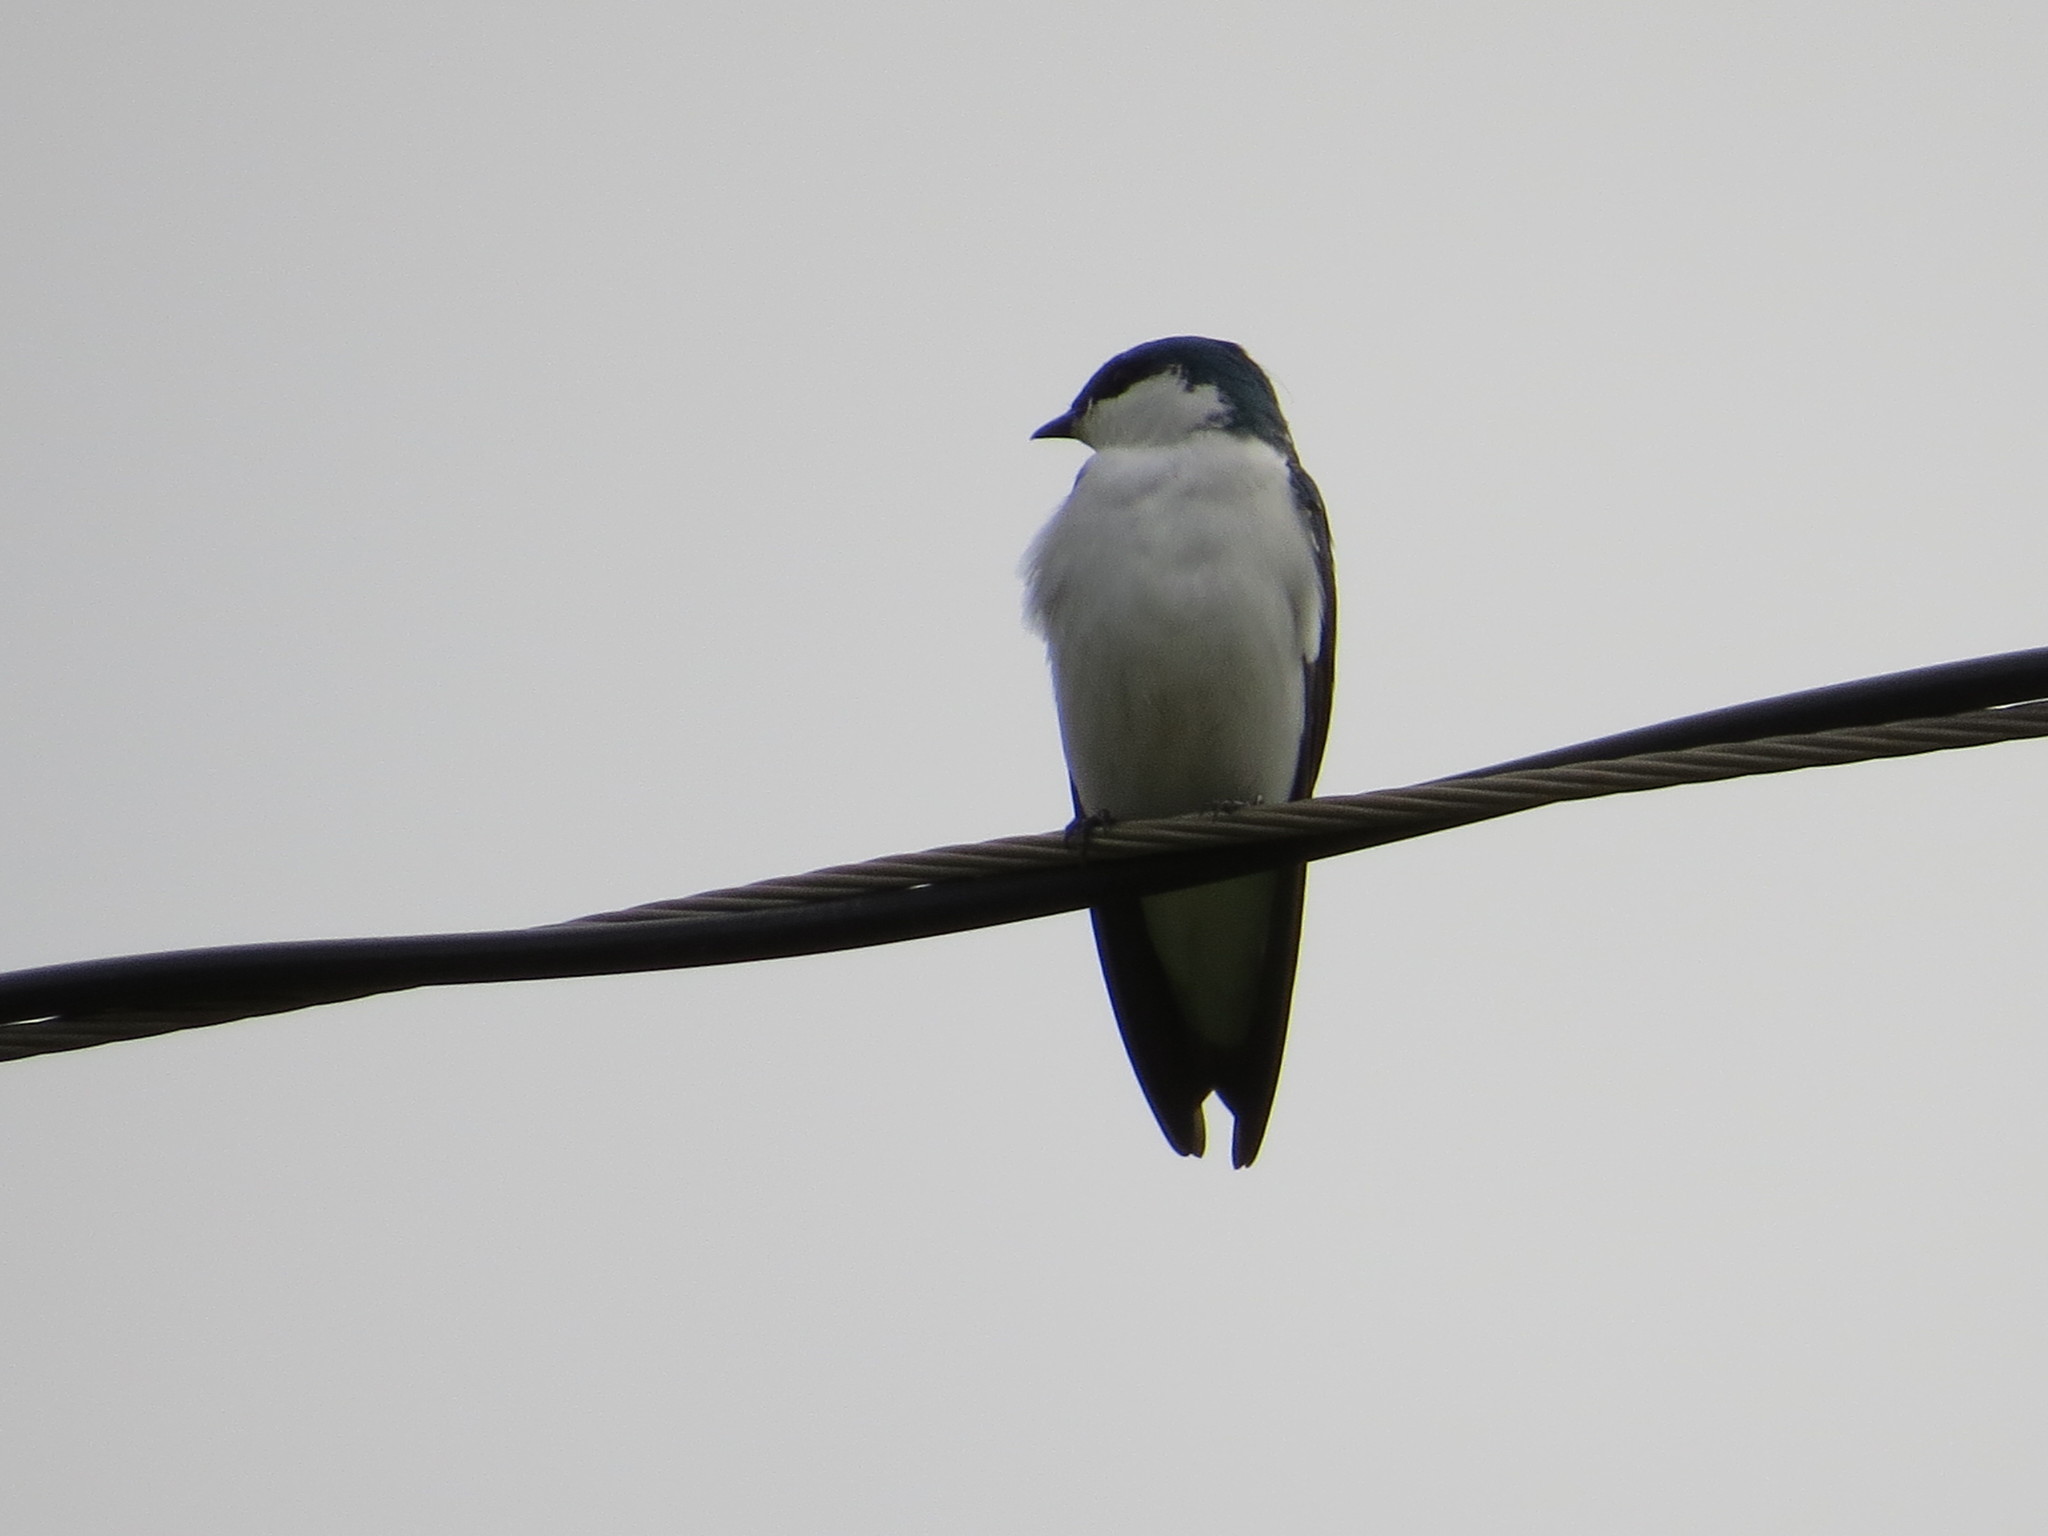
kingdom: Animalia
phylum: Chordata
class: Aves
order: Passeriformes
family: Hirundinidae
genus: Tachycineta
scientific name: Tachycineta albiventer
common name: White-winged swallow
